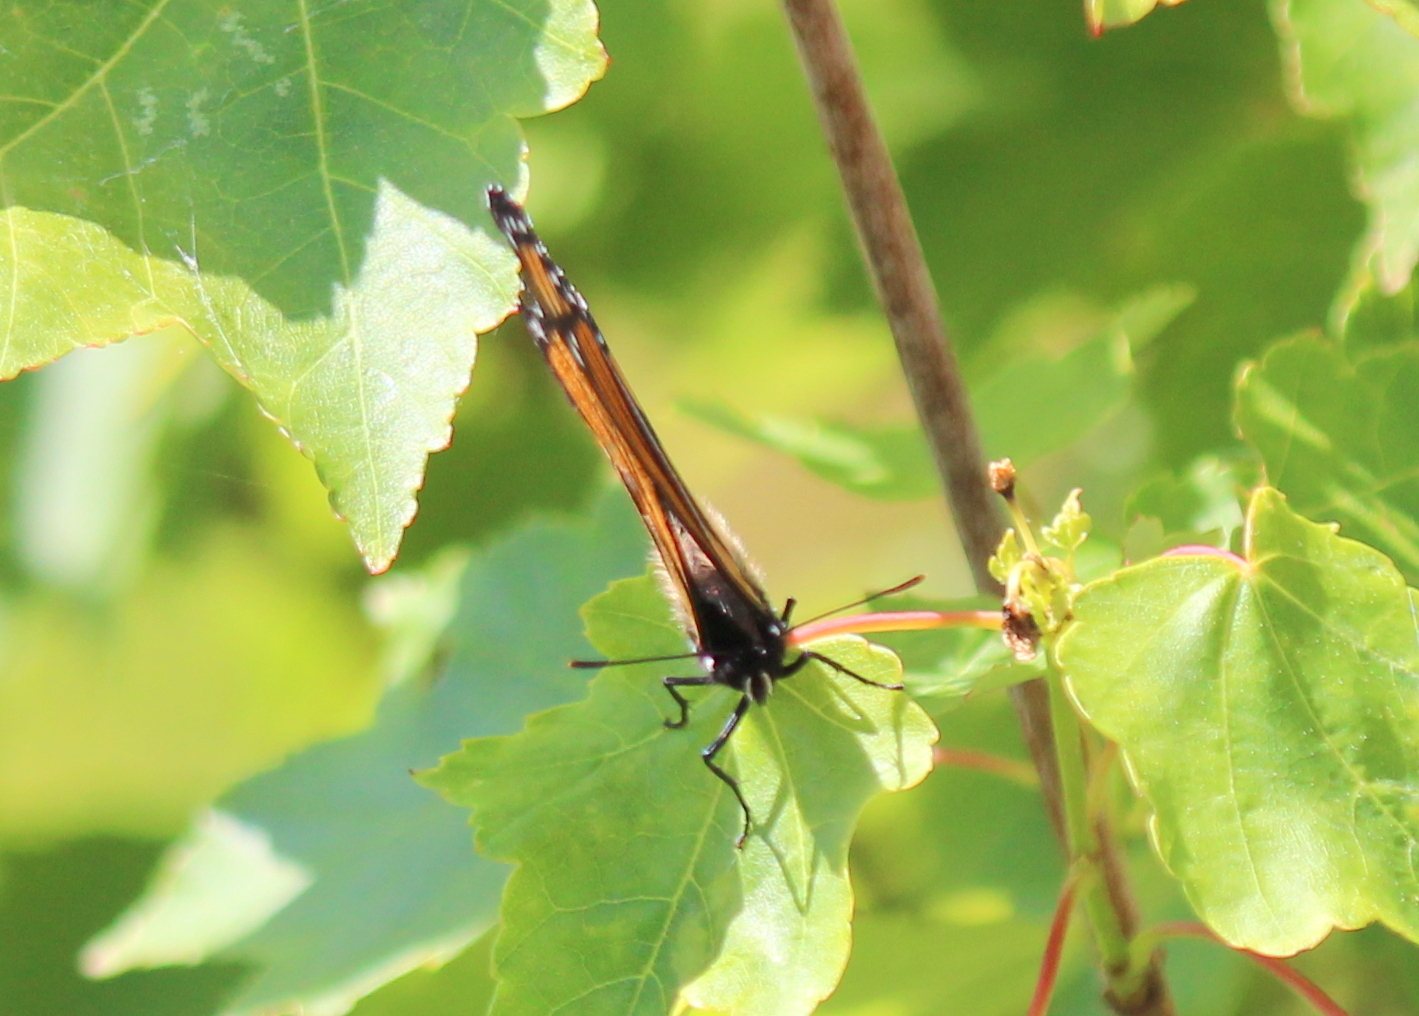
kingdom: Animalia
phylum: Arthropoda
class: Insecta
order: Lepidoptera
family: Nymphalidae
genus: Limenitis
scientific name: Limenitis archippus
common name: Viceroy
